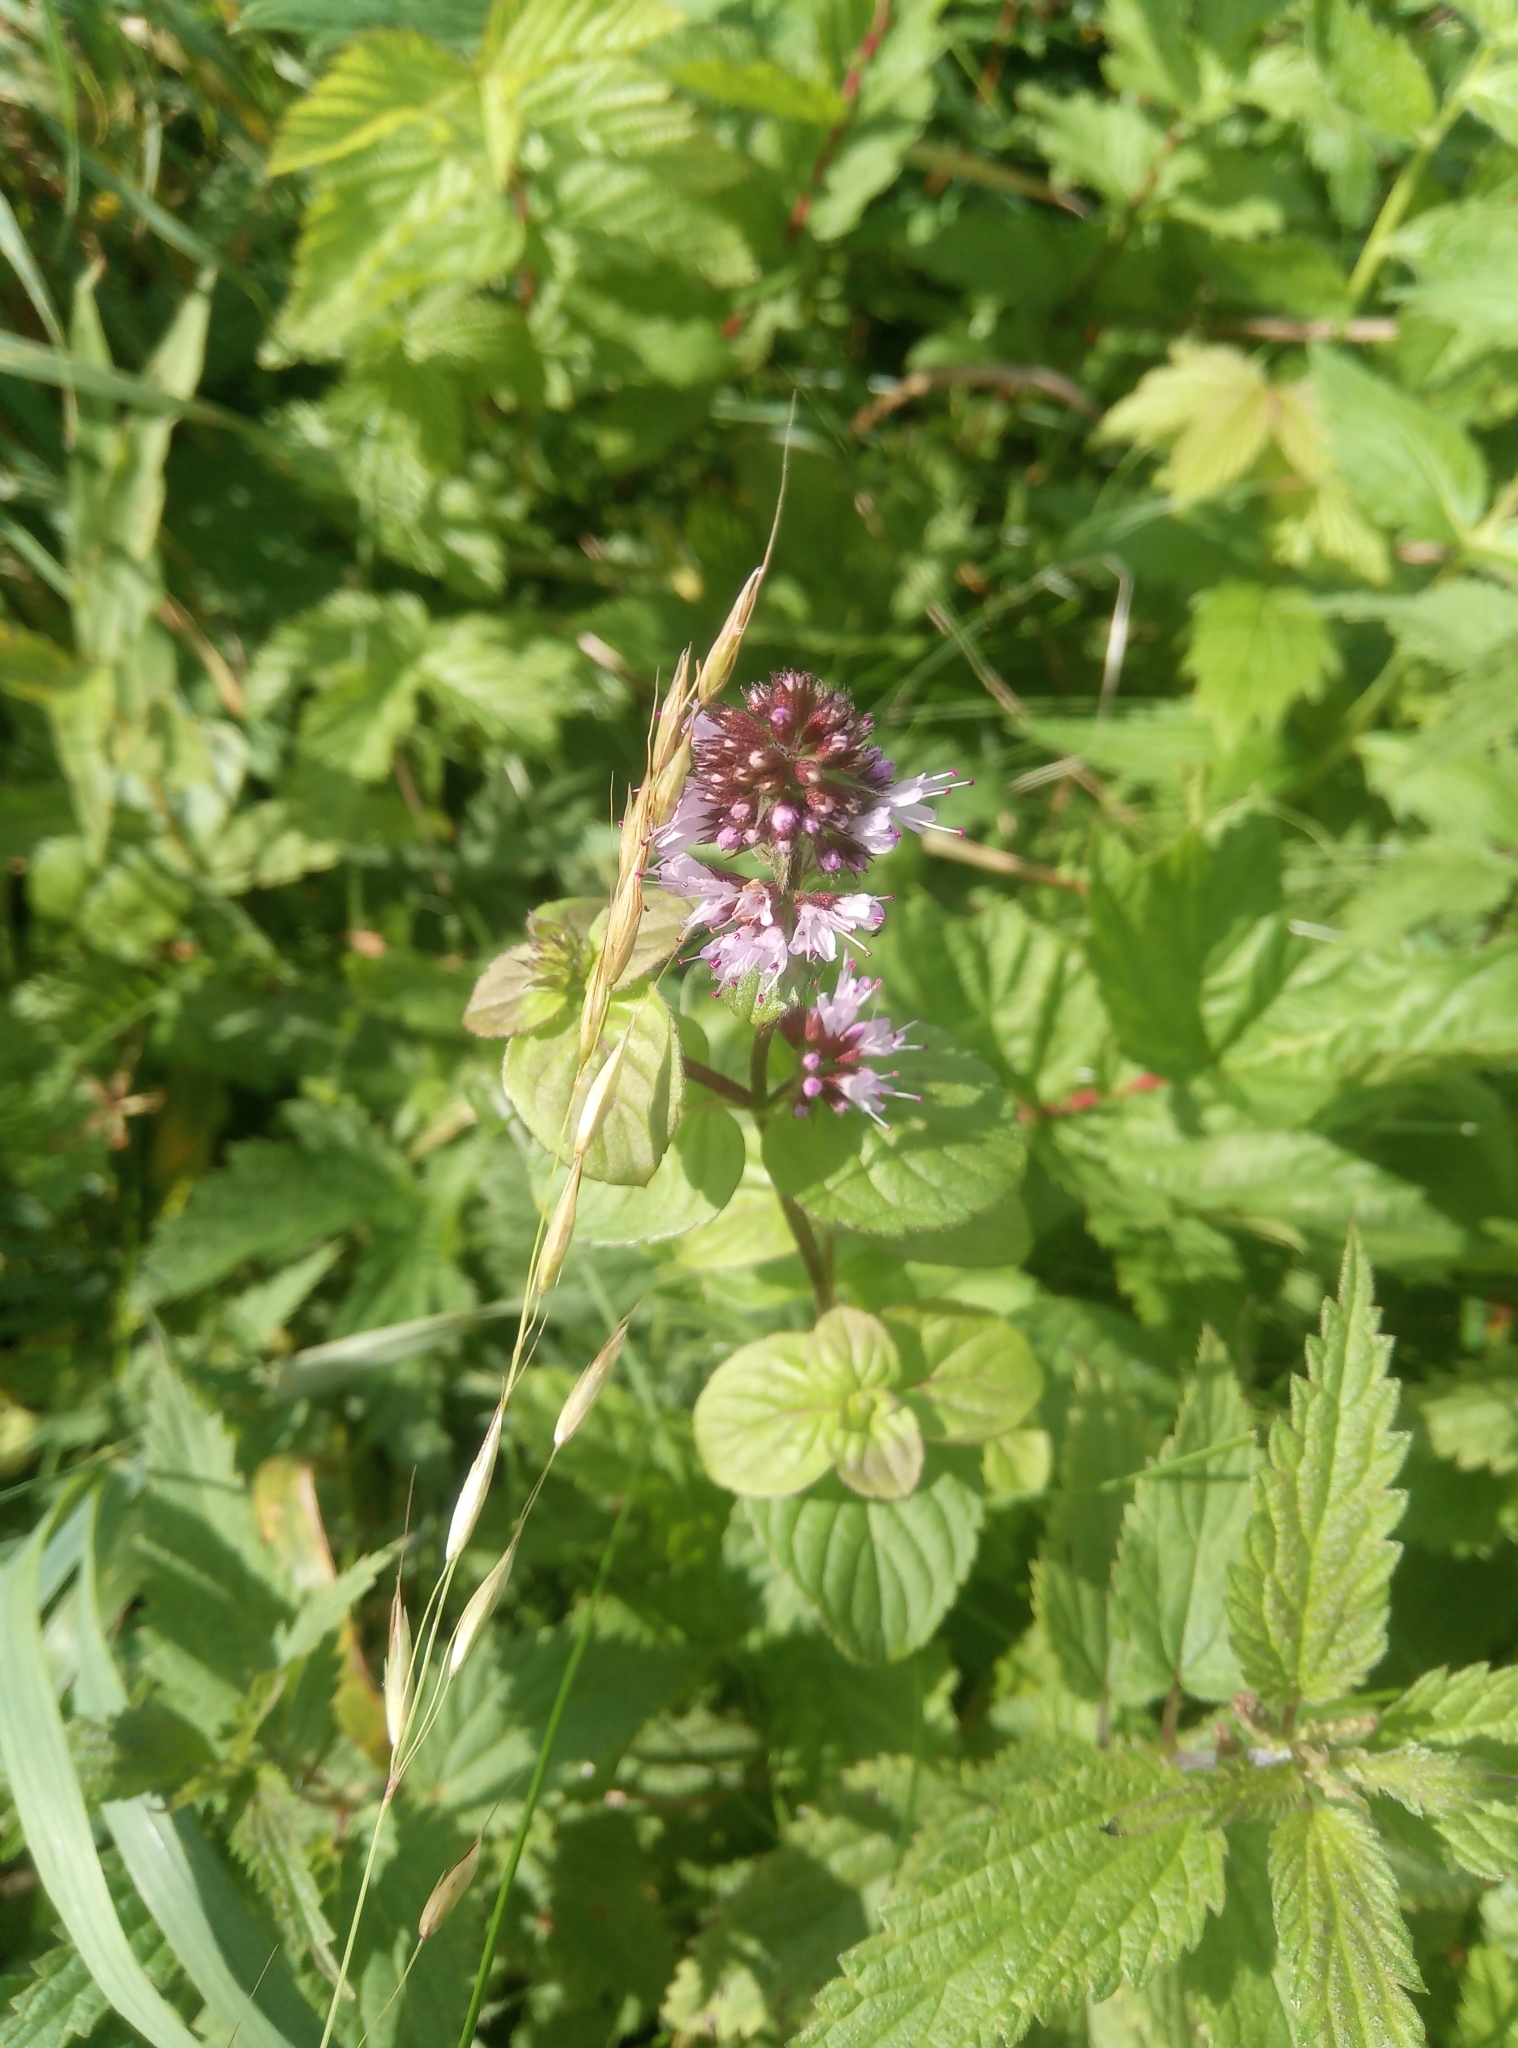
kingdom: Plantae
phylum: Tracheophyta
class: Magnoliopsida
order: Lamiales
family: Lamiaceae
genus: Mentha
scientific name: Mentha aquatica
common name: Water mint
